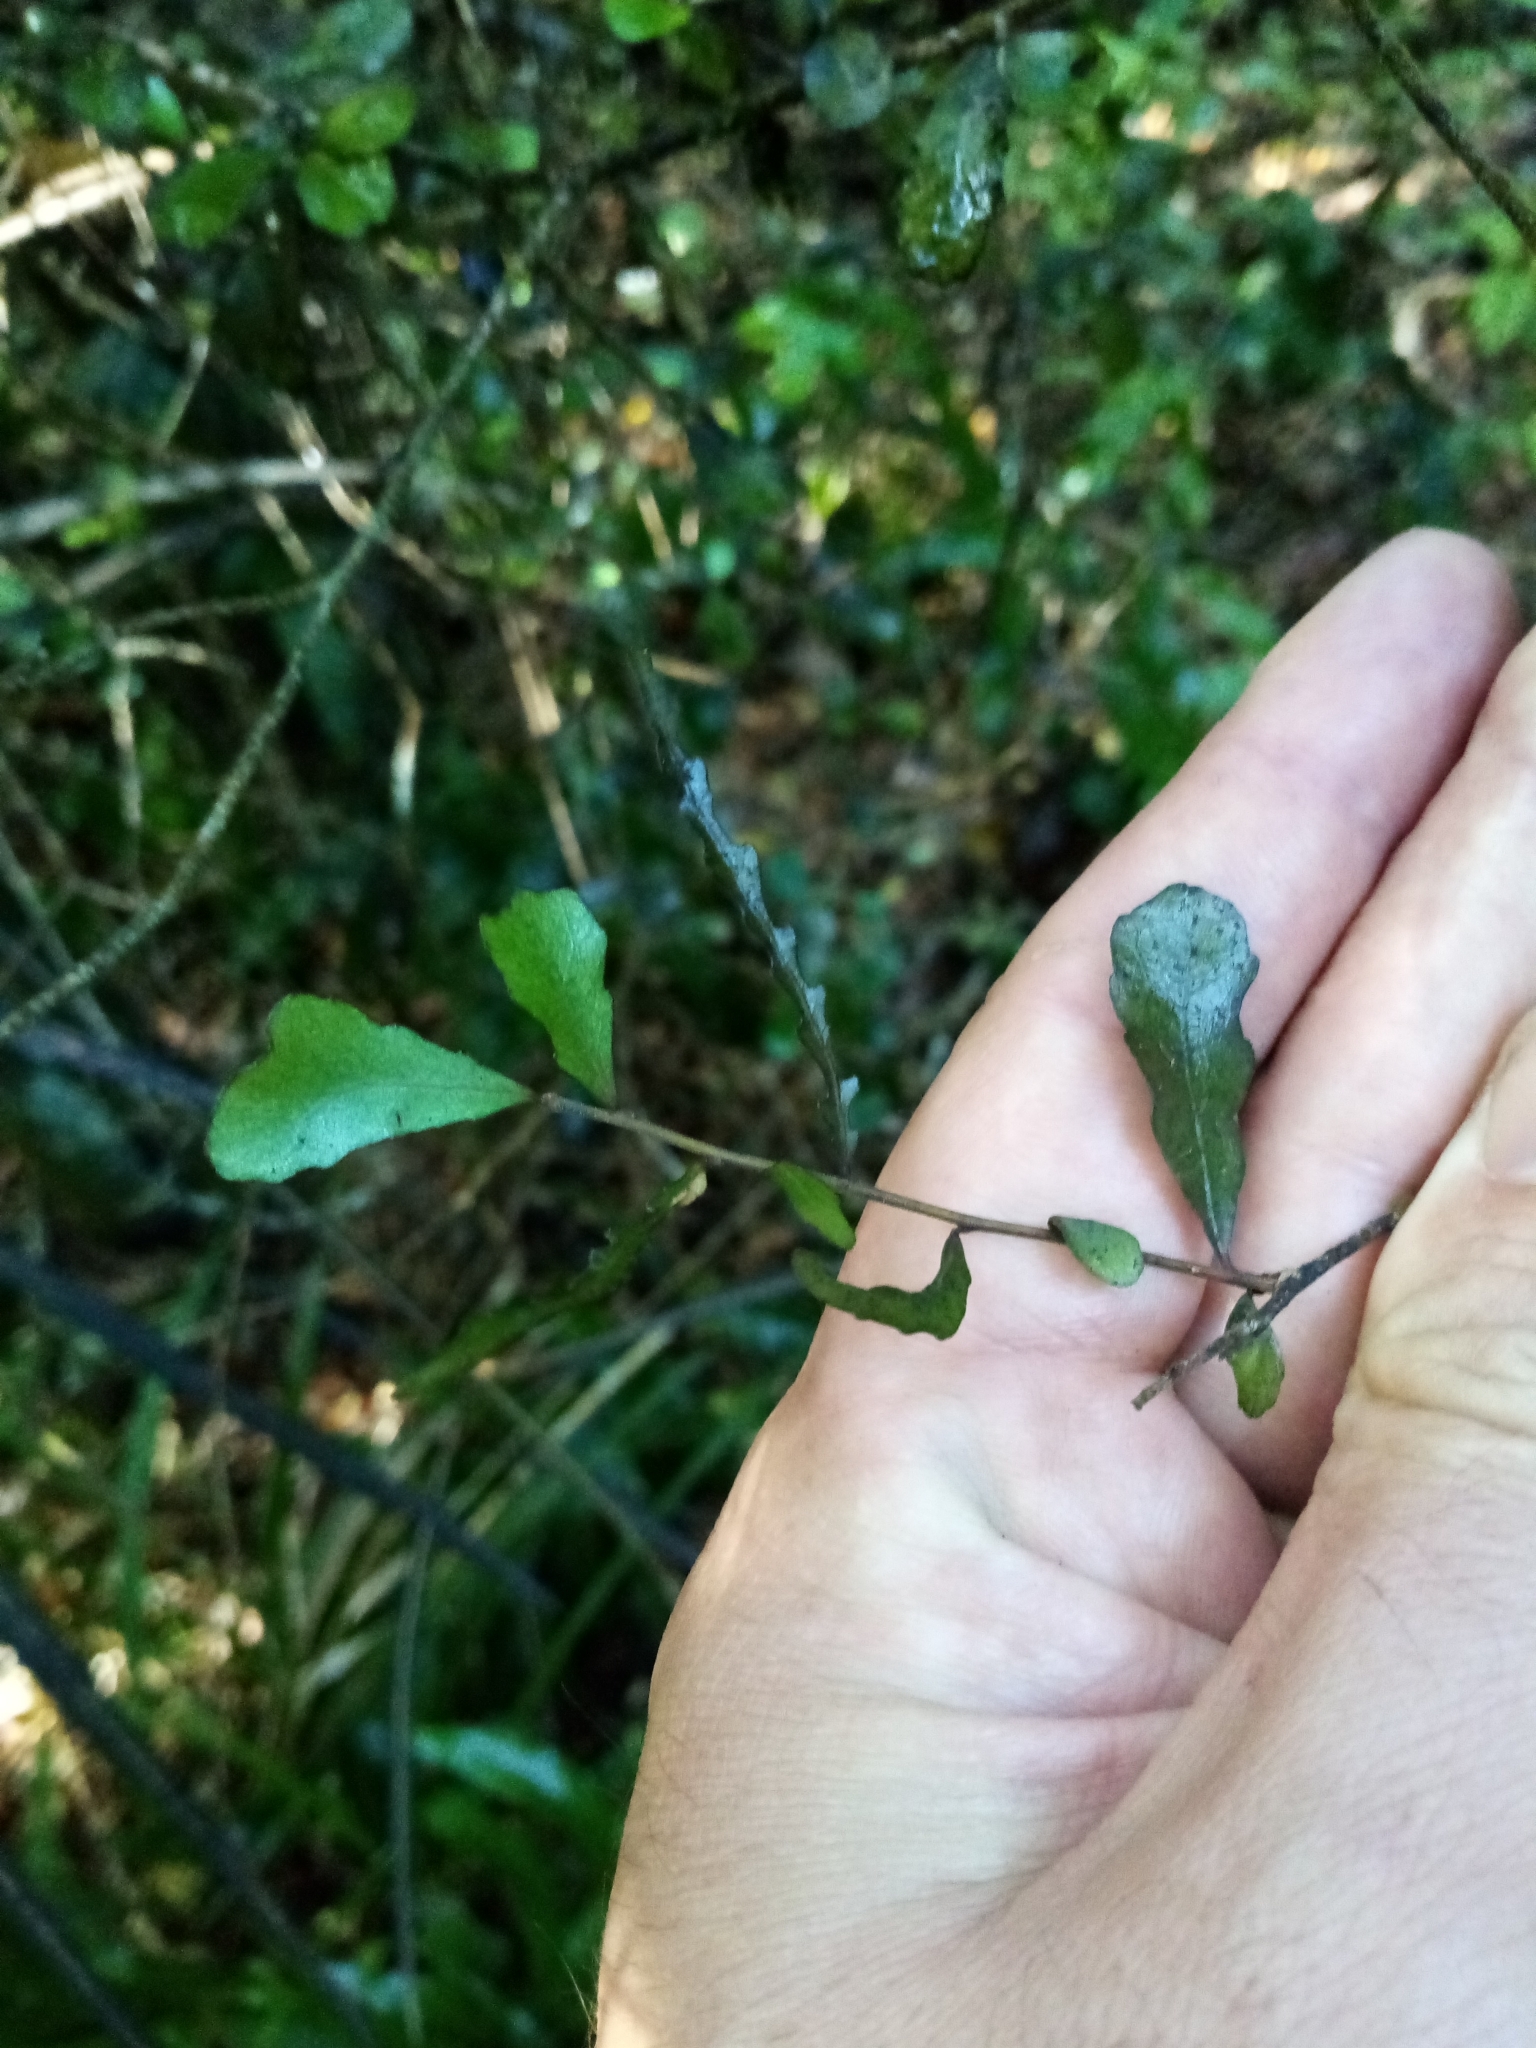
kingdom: Plantae
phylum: Tracheophyta
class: Magnoliopsida
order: Oxalidales
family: Elaeocarpaceae
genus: Elaeocarpus
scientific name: Elaeocarpus hookerianus
